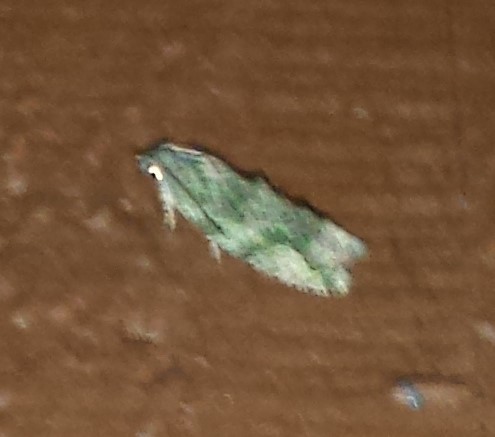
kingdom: Animalia
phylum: Arthropoda
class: Insecta
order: Lepidoptera
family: Tortricidae
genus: Proteoteras
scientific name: Proteoteras aesculana
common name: Maple twig borer moth
